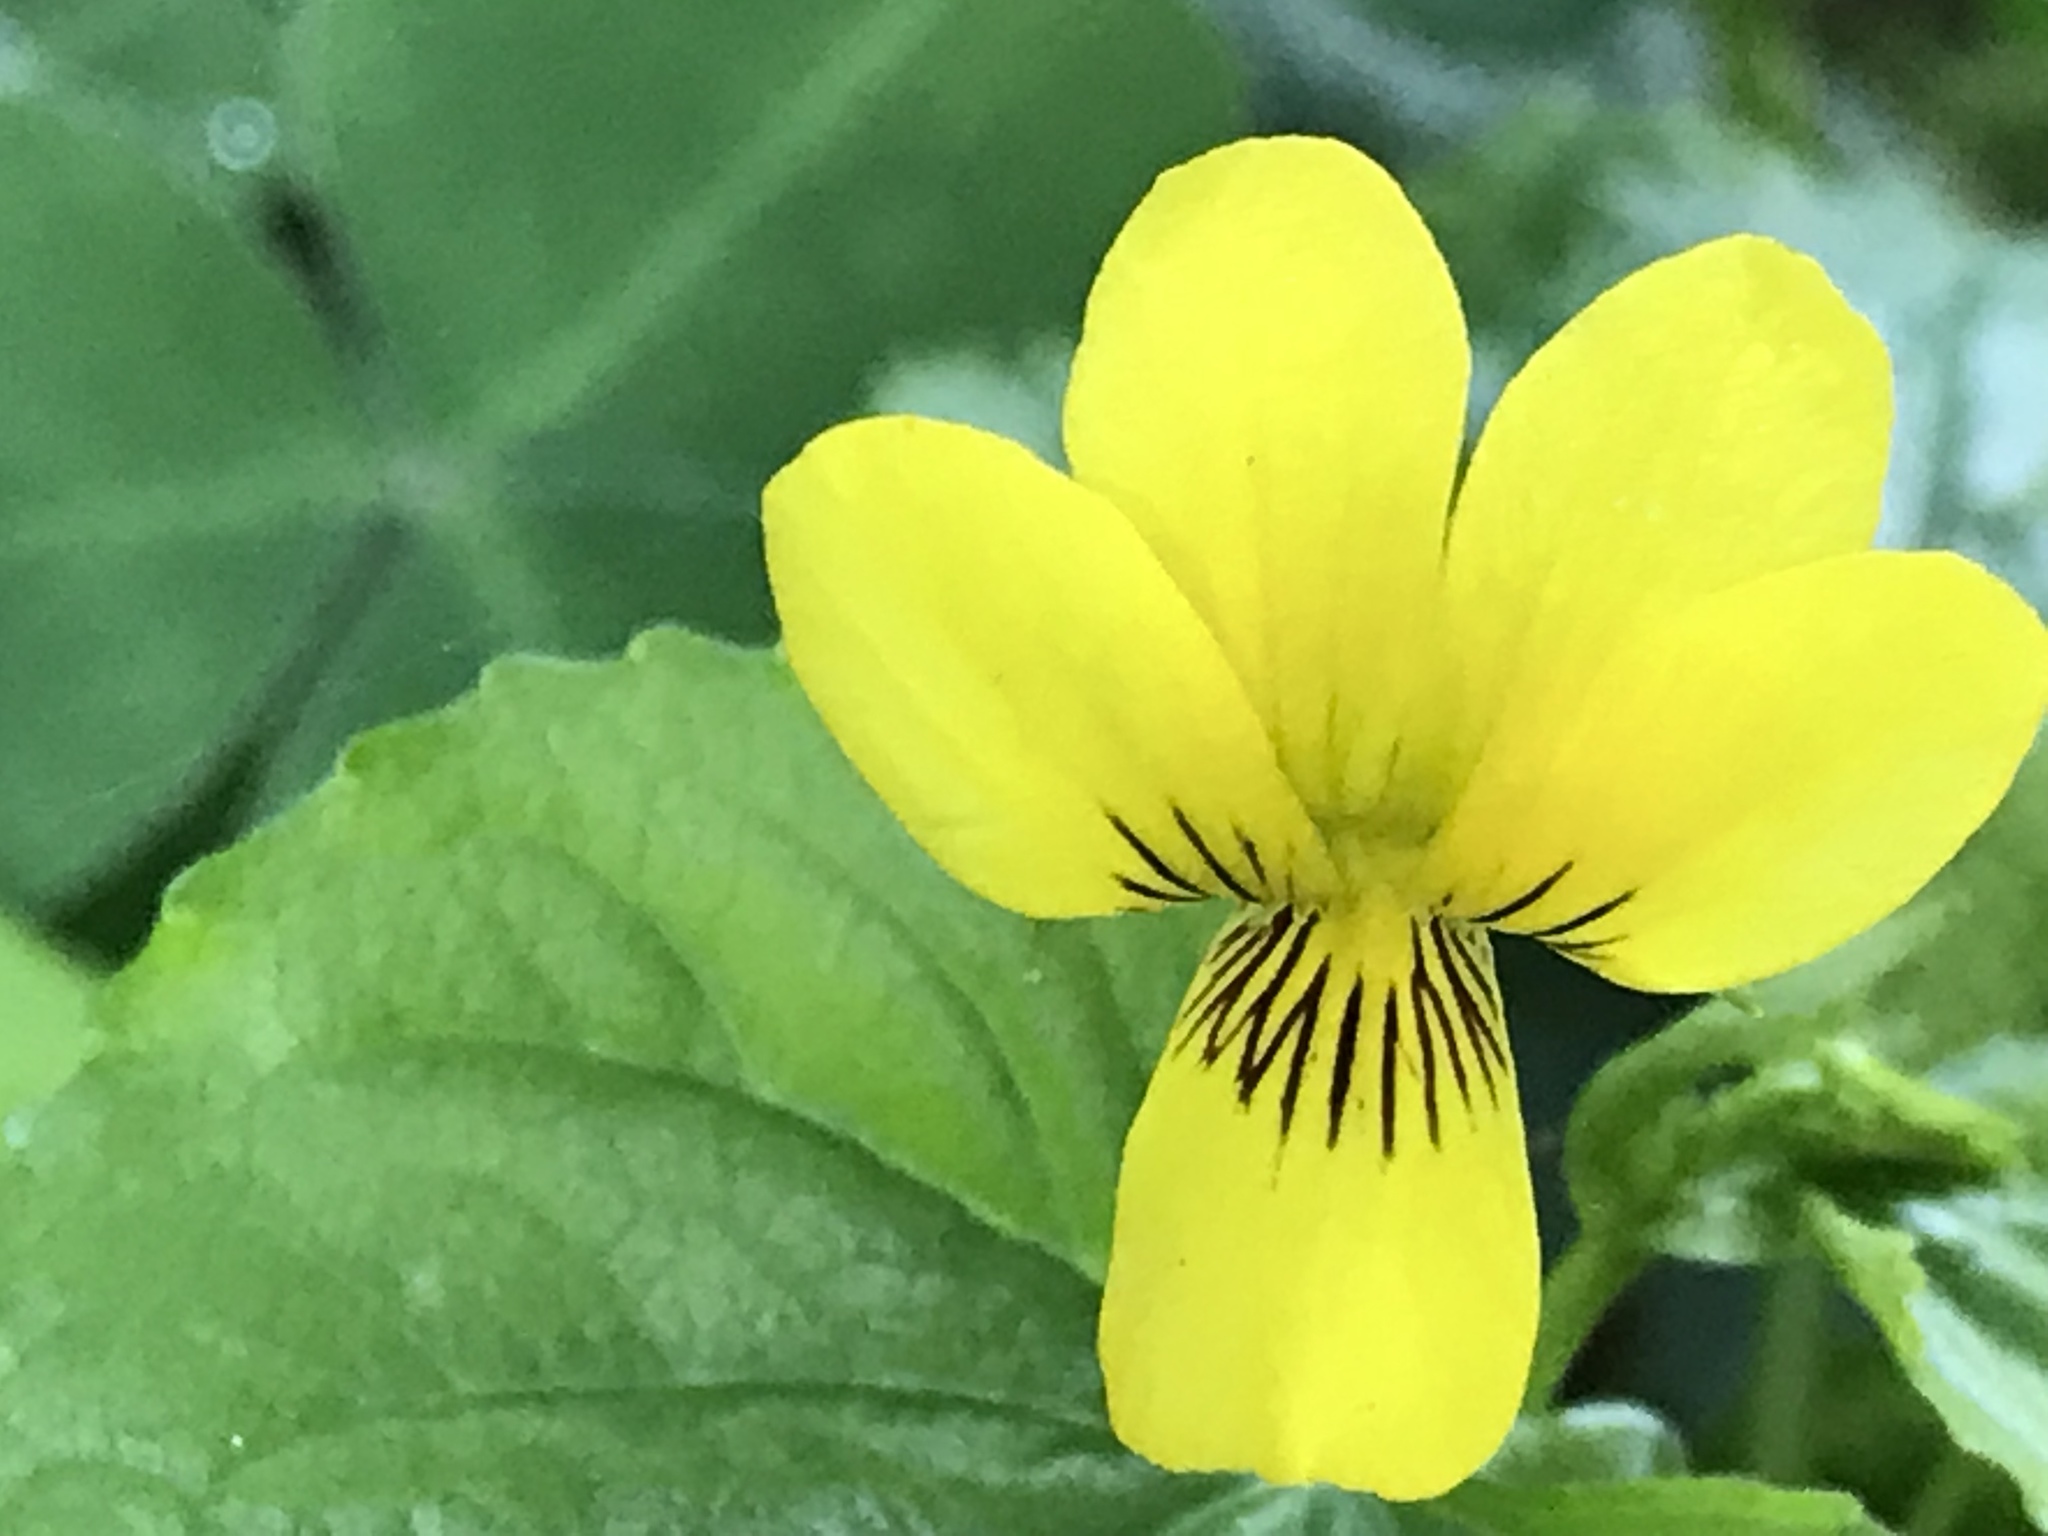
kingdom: Plantae
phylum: Tracheophyta
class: Magnoliopsida
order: Malpighiales
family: Violaceae
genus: Viola
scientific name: Viola glabella
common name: Stream violet
